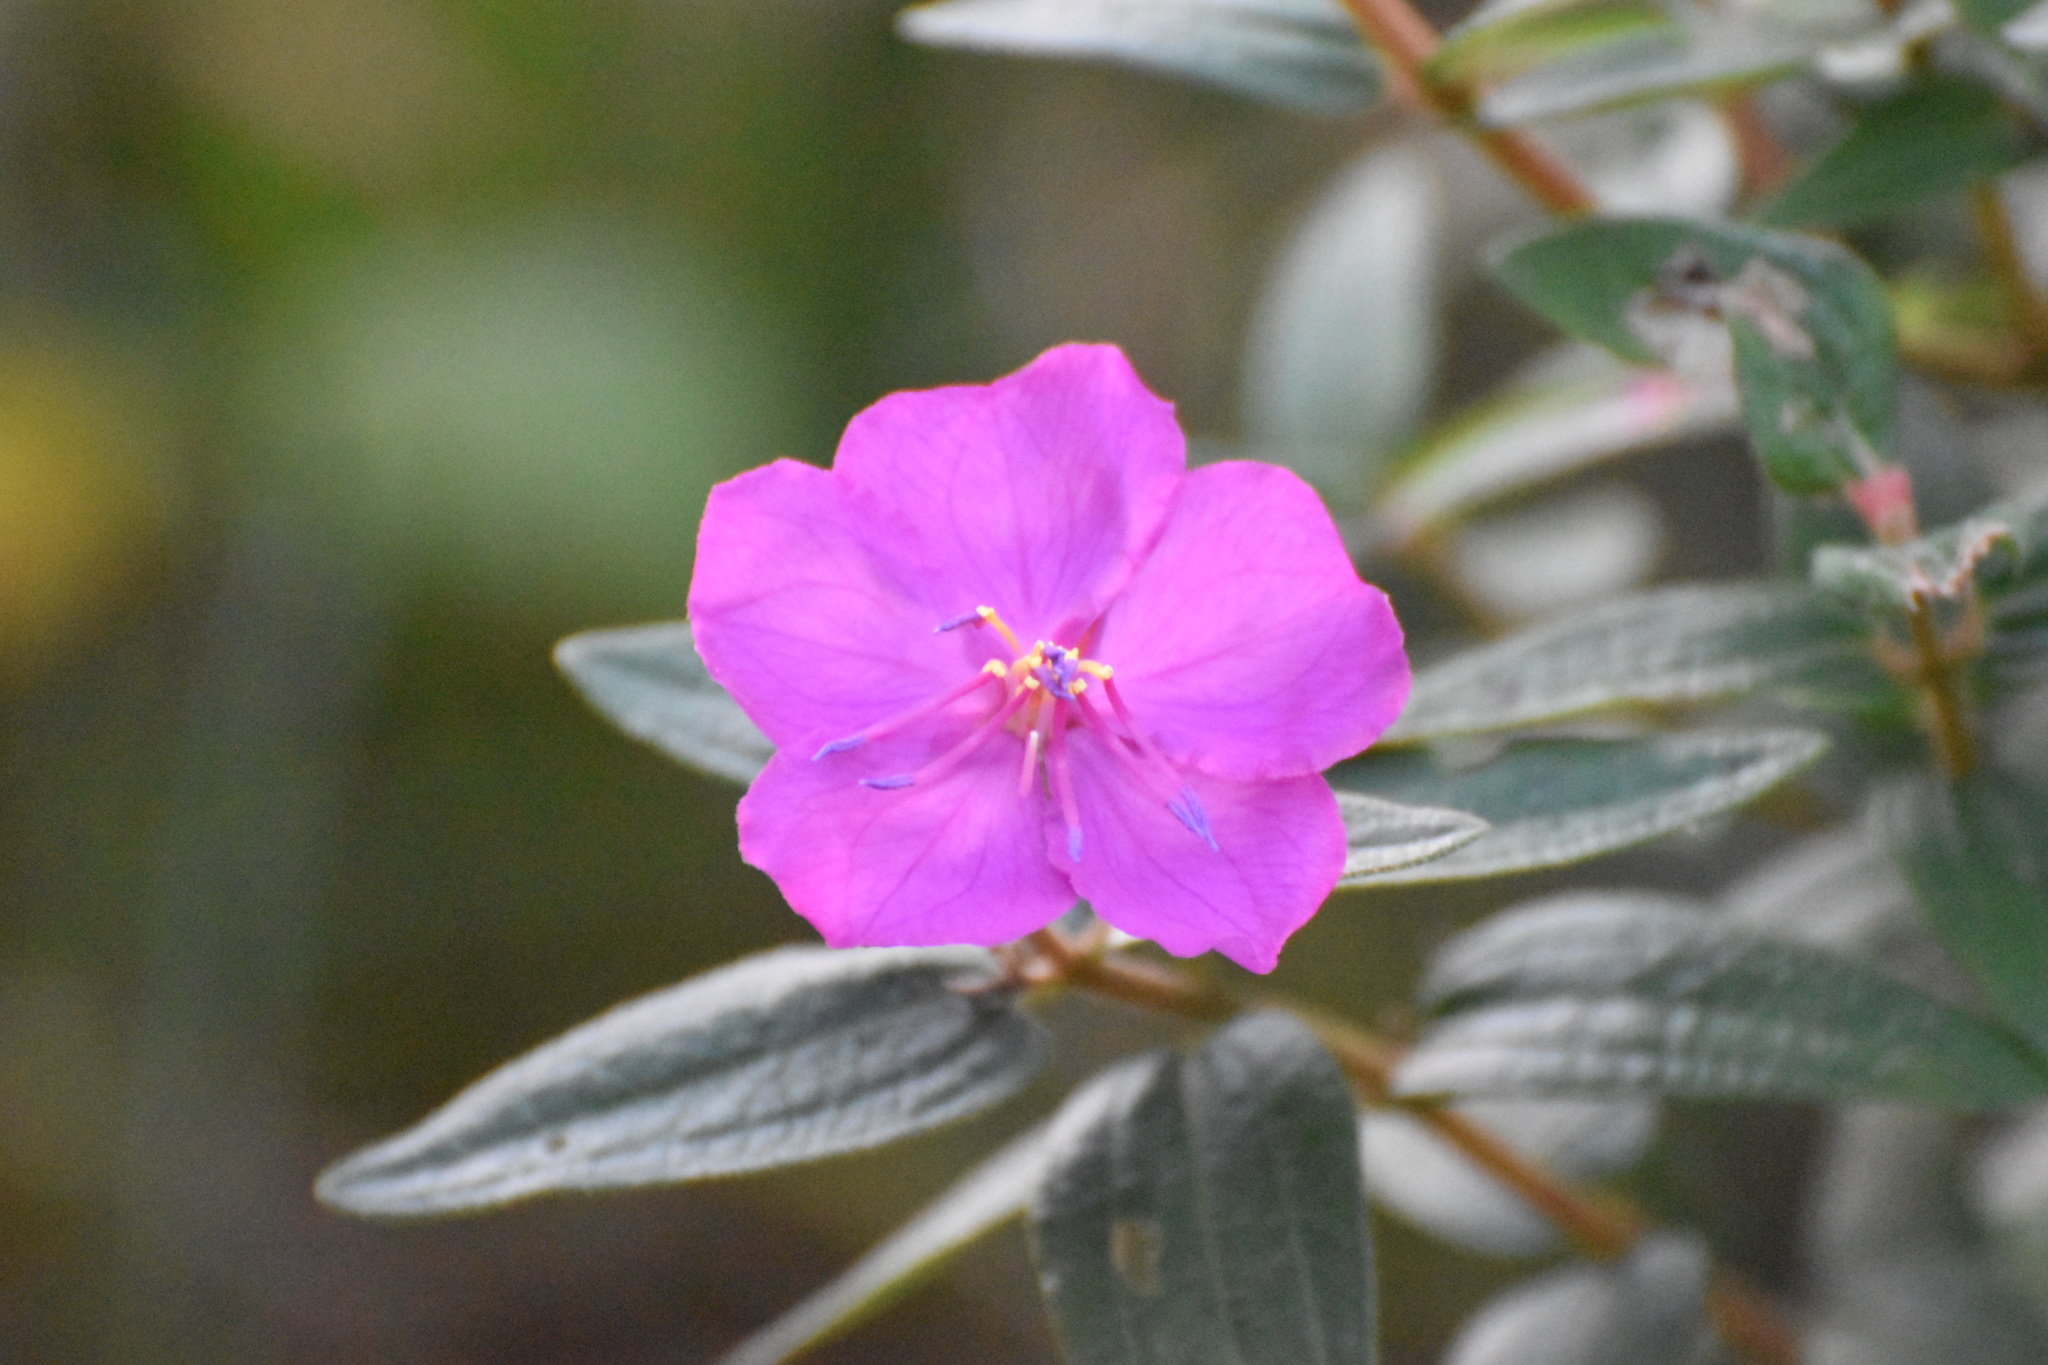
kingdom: Plantae
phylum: Tracheophyta
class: Magnoliopsida
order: Myrtales
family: Melastomataceae
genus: Argyrella
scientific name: Argyrella canescens
